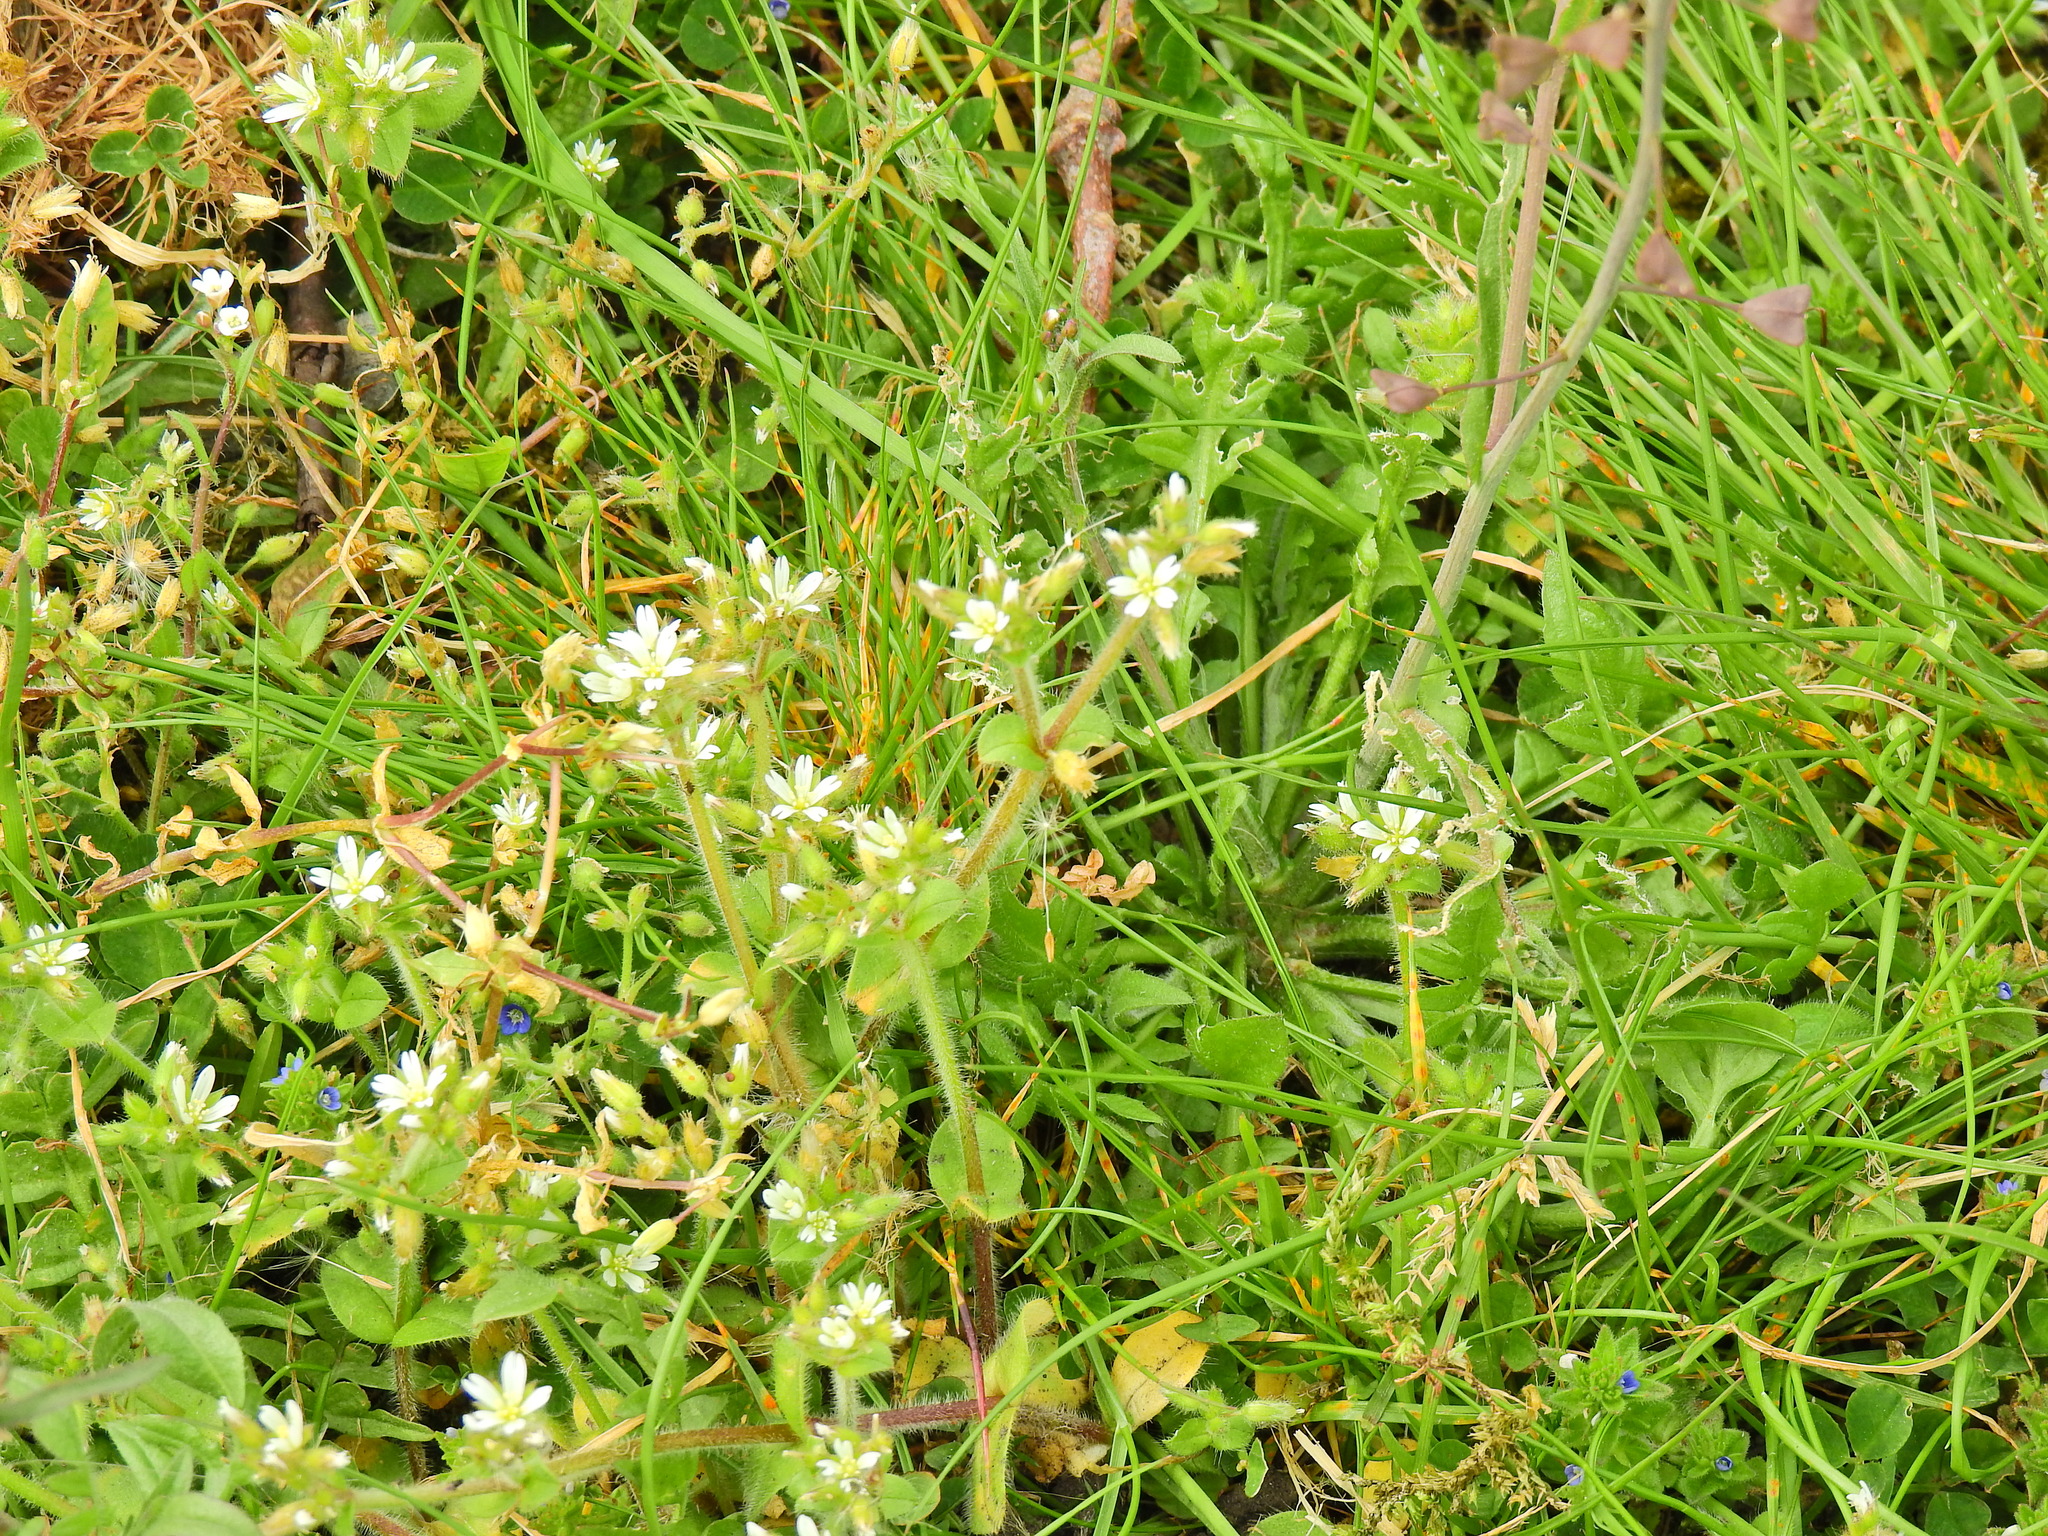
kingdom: Plantae
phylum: Tracheophyta
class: Magnoliopsida
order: Caryophyllales
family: Caryophyllaceae
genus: Cerastium
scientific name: Cerastium glomeratum
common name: Sticky chickweed
